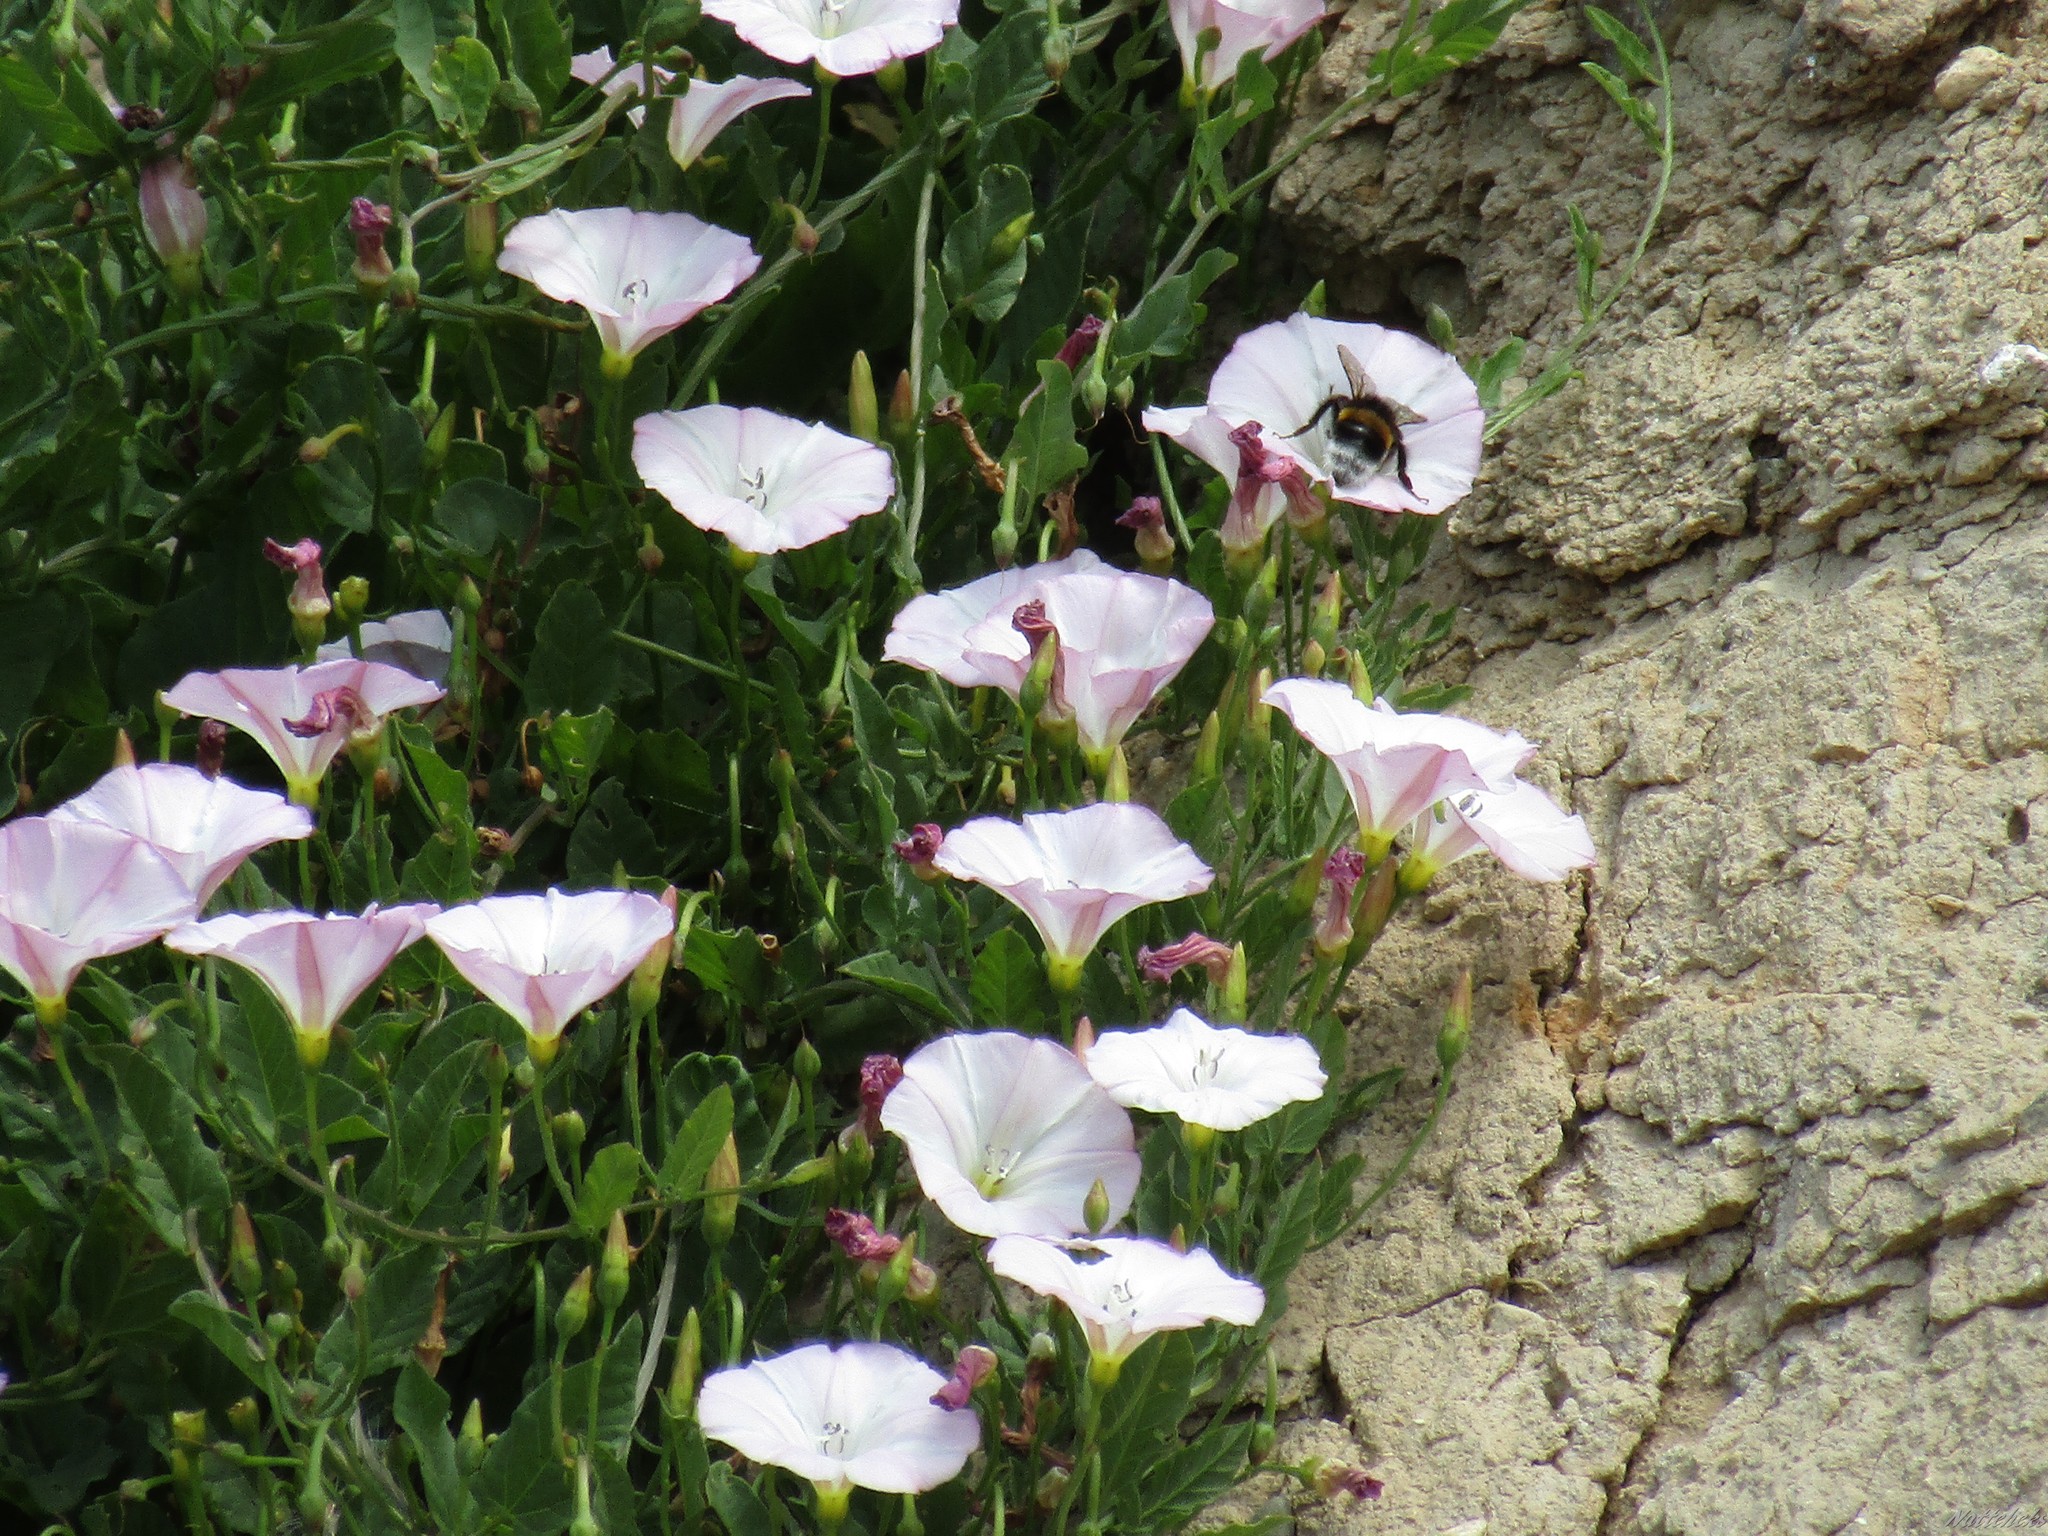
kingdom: Plantae
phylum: Tracheophyta
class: Magnoliopsida
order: Solanales
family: Convolvulaceae
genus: Convolvulus
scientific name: Convolvulus arvensis
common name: Field bindweed
